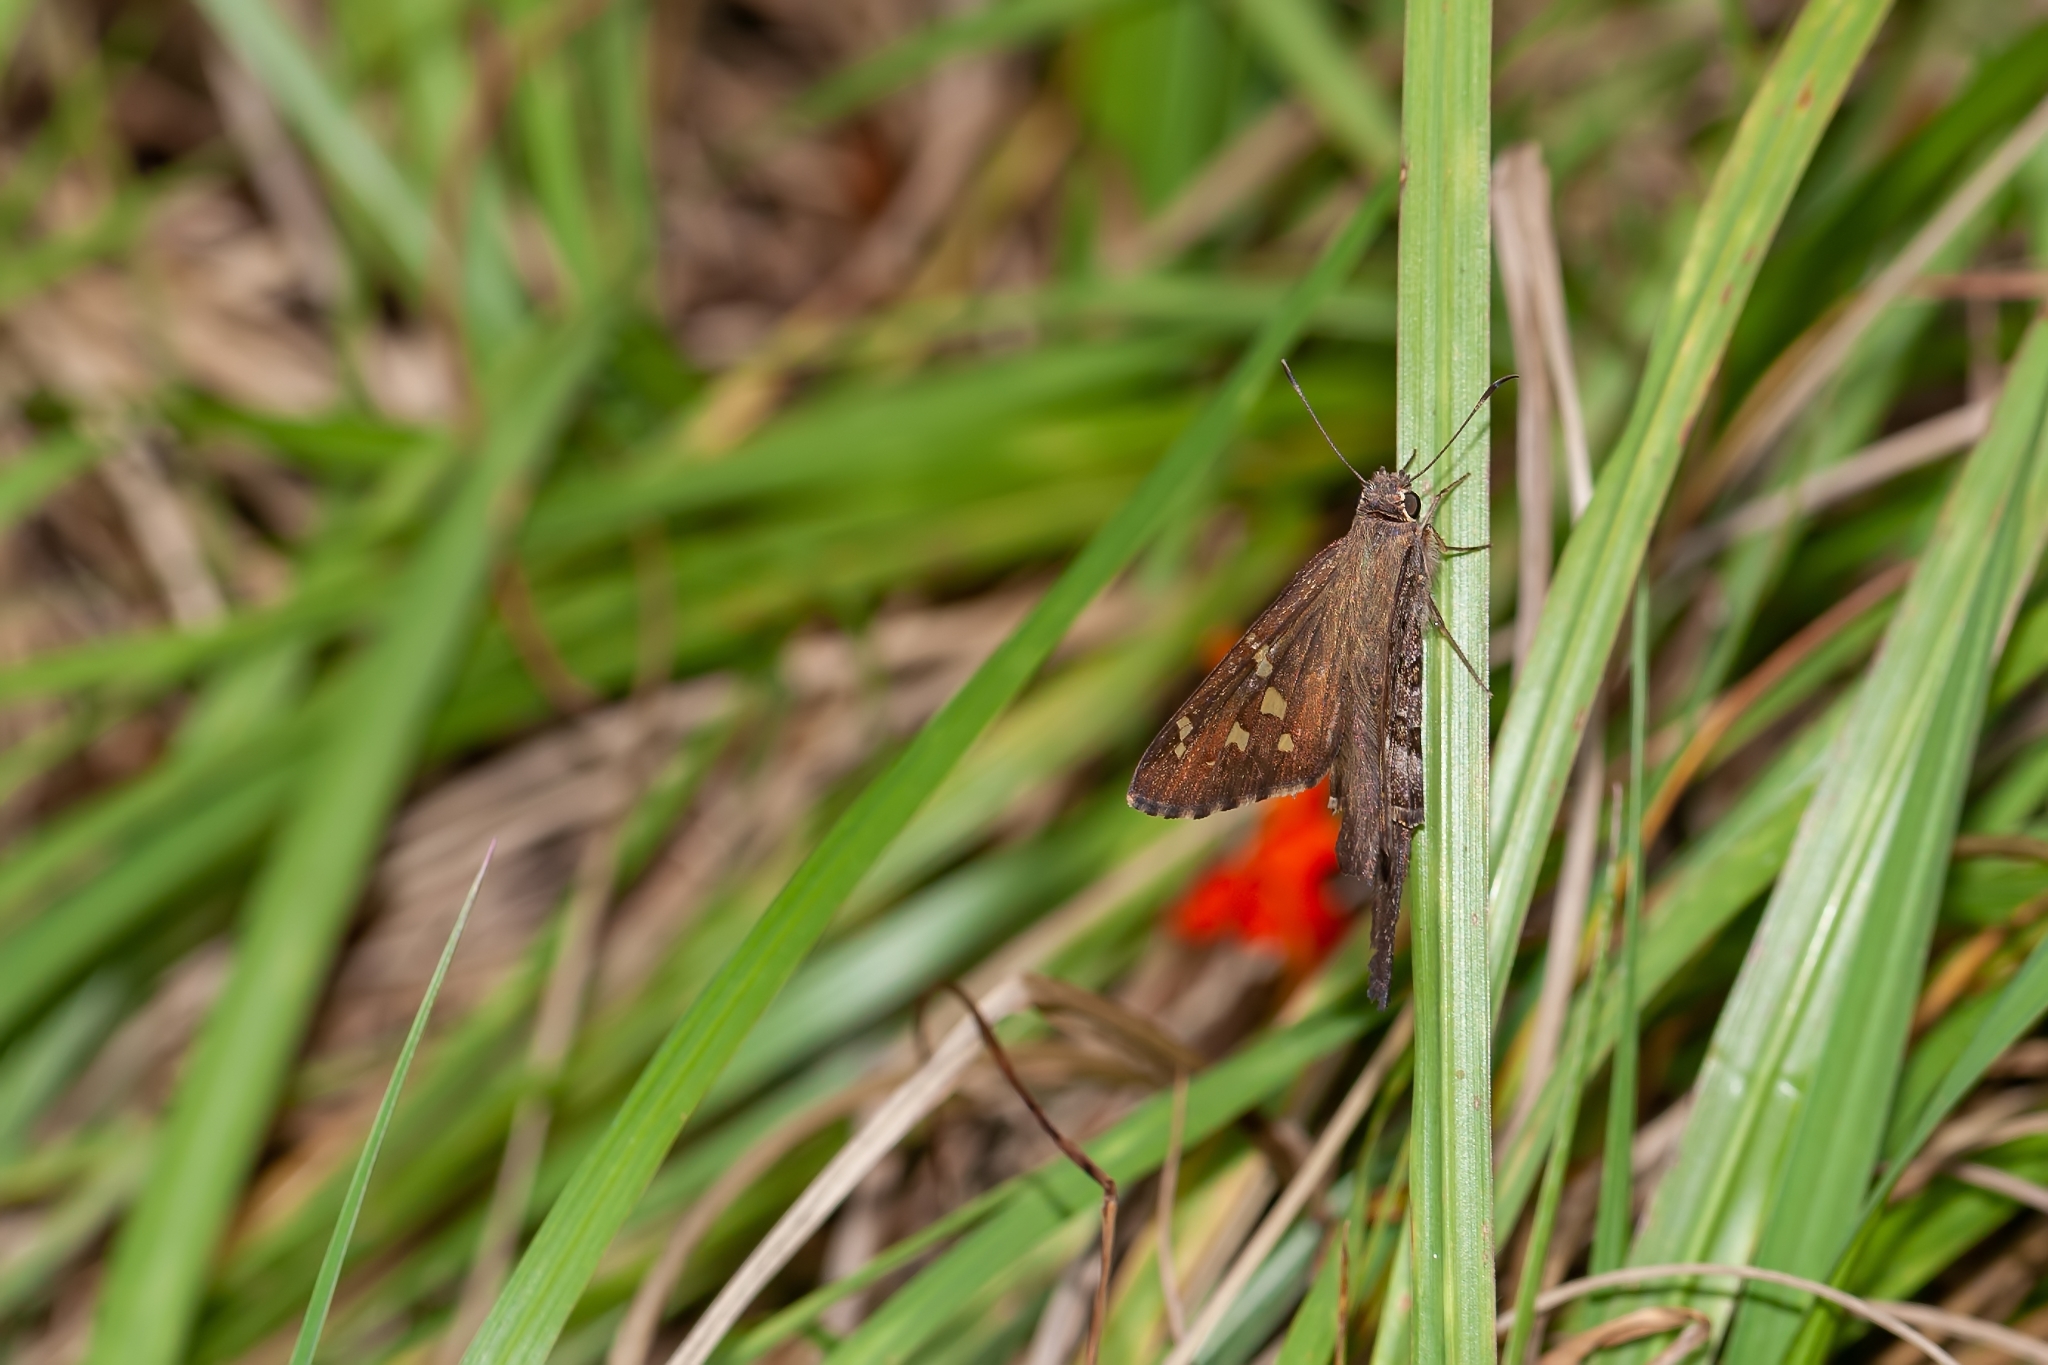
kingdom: Animalia
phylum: Arthropoda
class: Insecta
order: Lepidoptera
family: Hesperiidae
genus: Thorybes
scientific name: Thorybes
